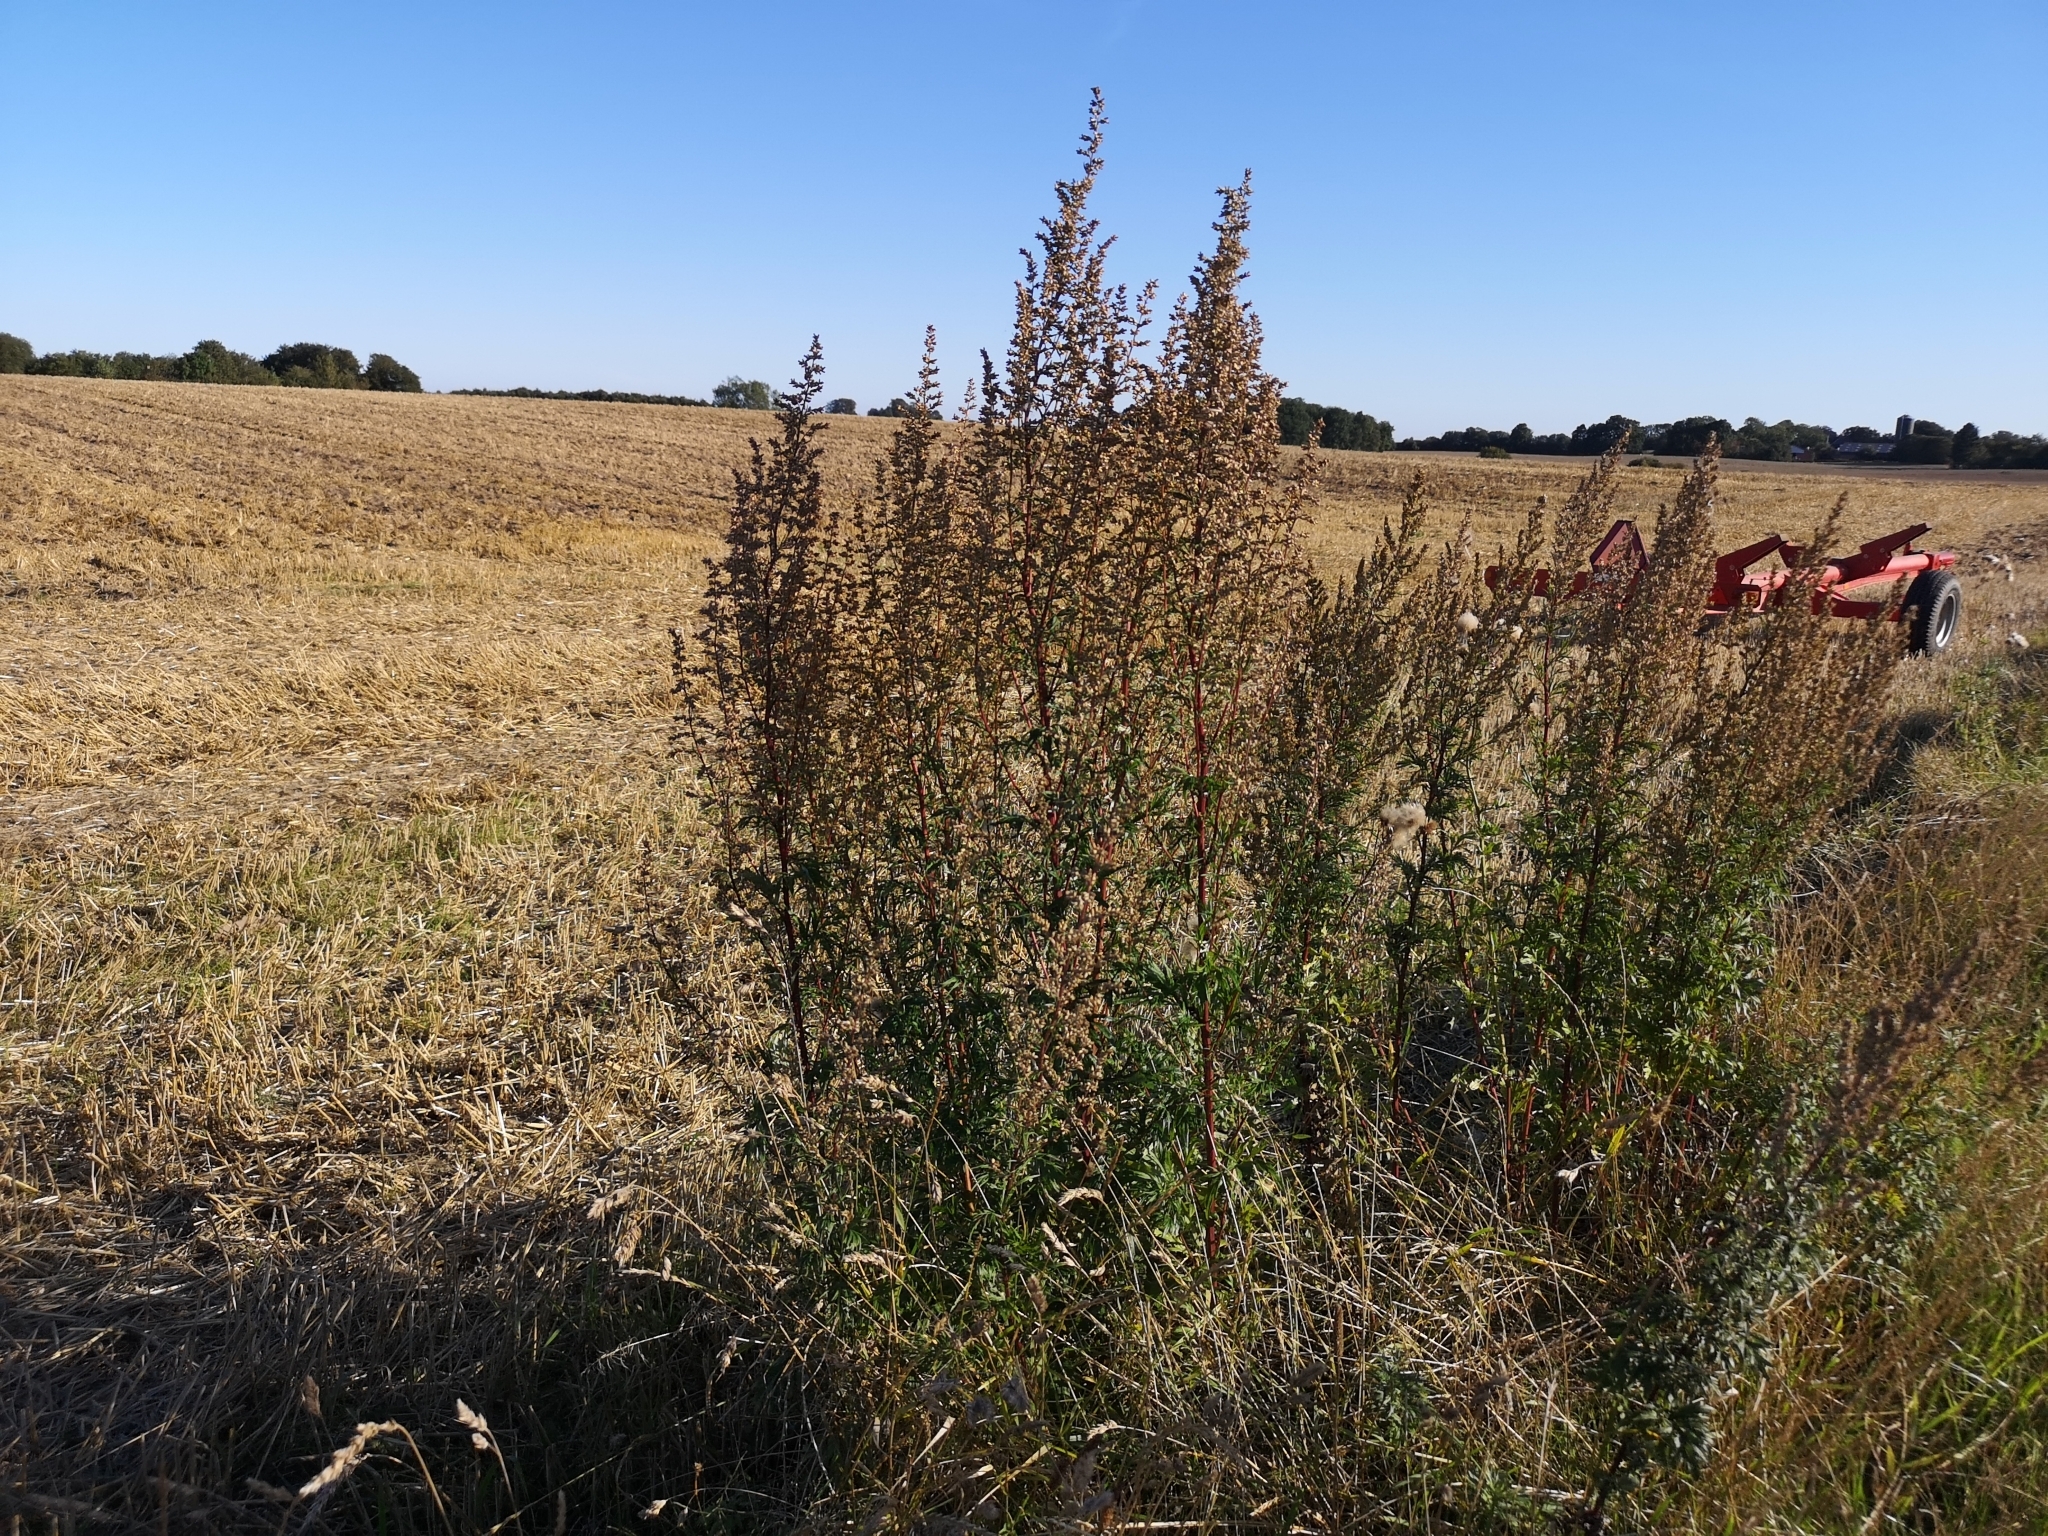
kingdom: Plantae
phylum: Tracheophyta
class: Magnoliopsida
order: Asterales
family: Asteraceae
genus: Artemisia
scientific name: Artemisia vulgaris
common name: Mugwort
